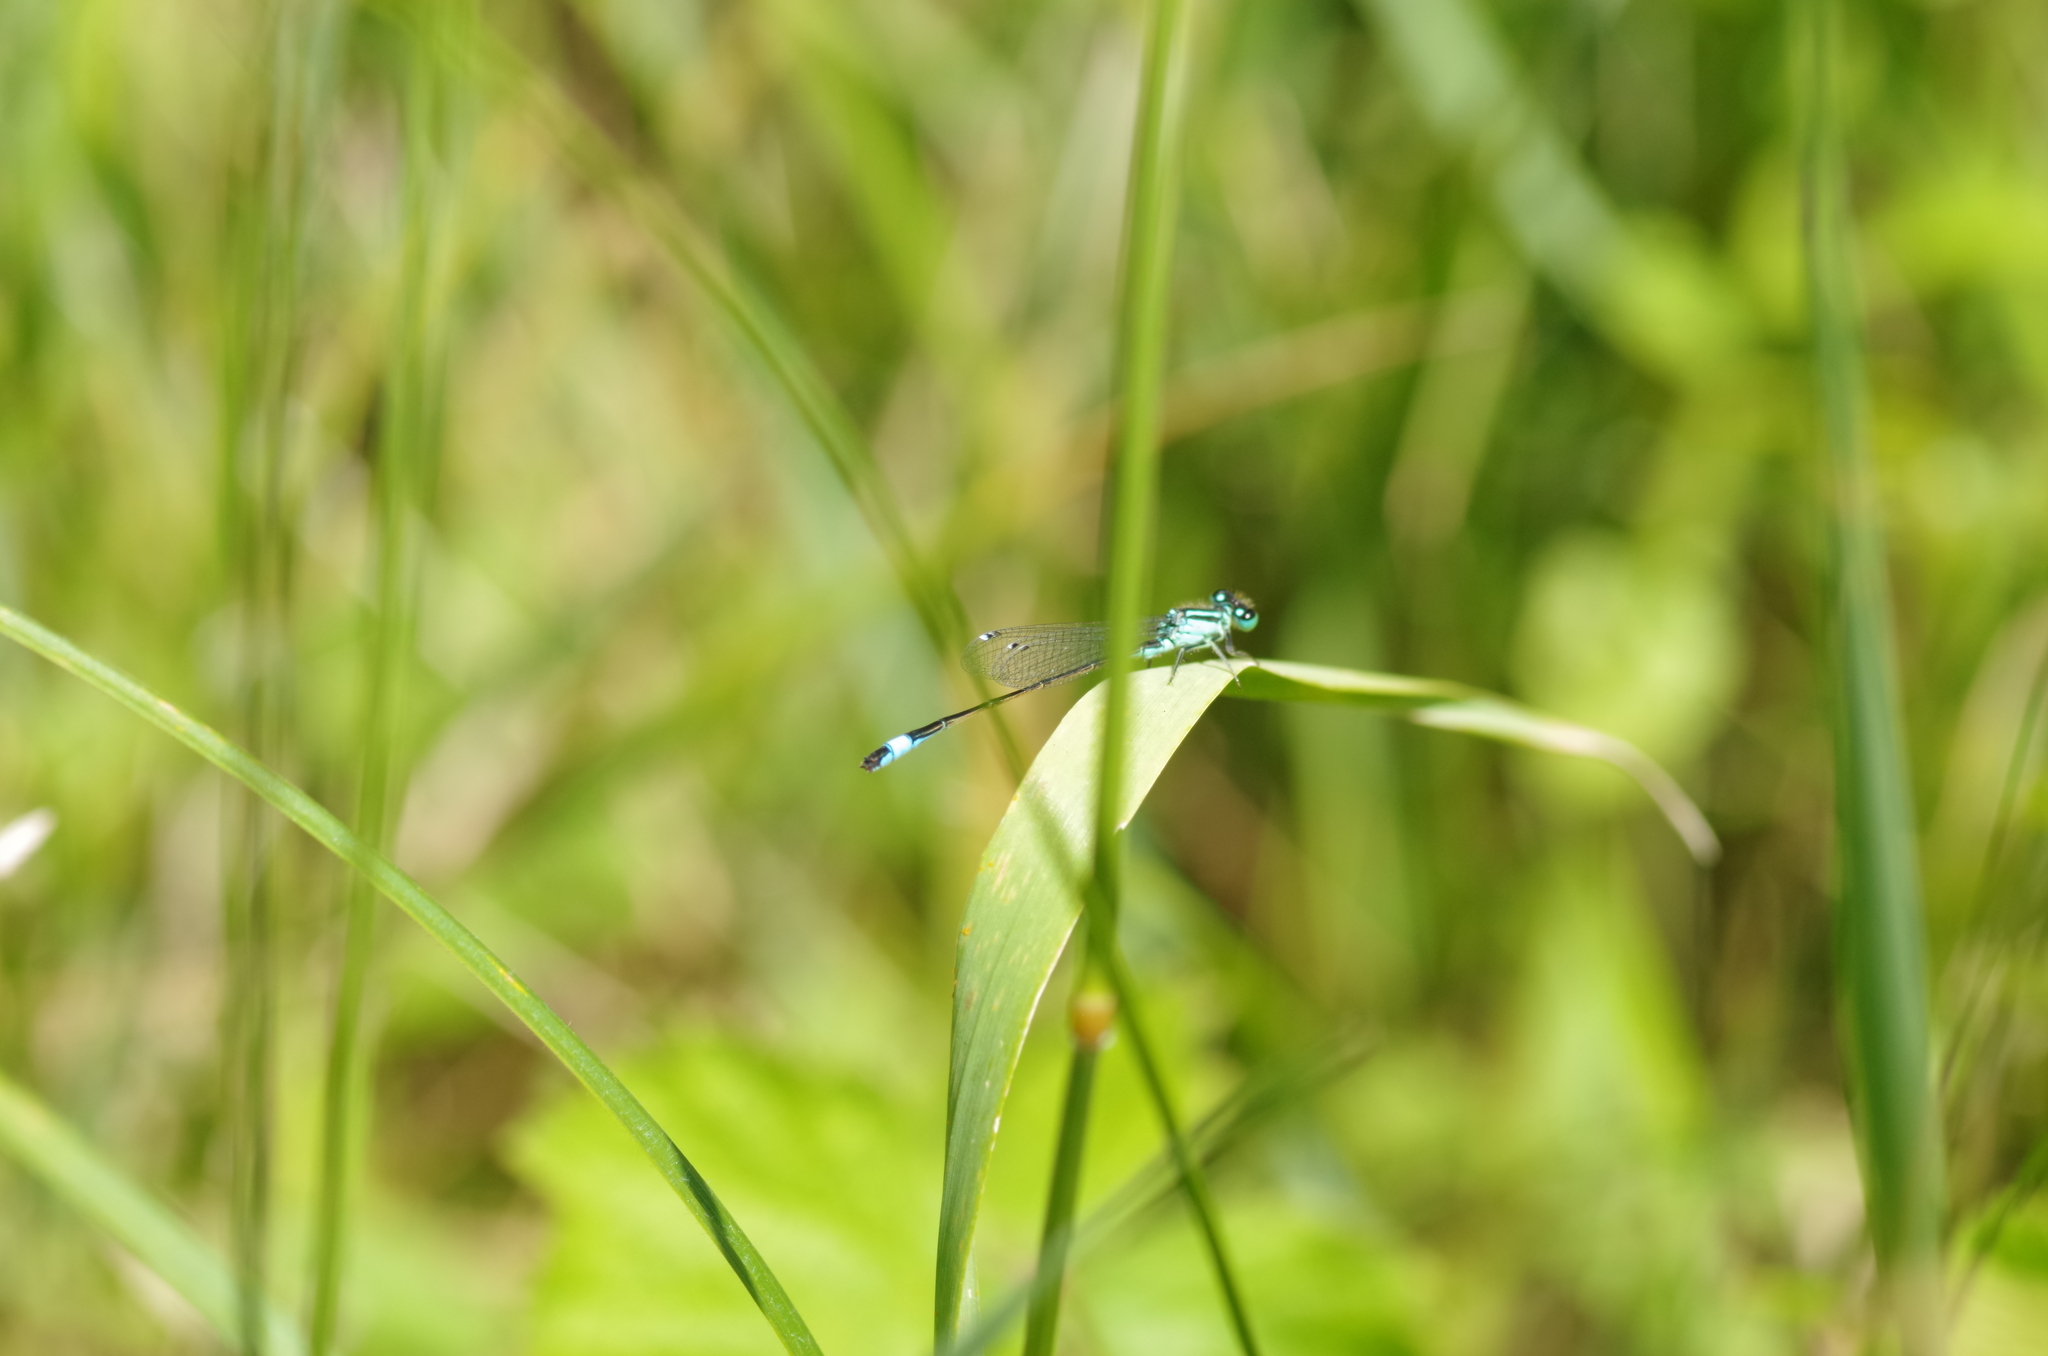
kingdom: Animalia
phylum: Arthropoda
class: Insecta
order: Odonata
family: Coenagrionidae
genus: Ischnura
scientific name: Ischnura elegans
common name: Blue-tailed damselfly
